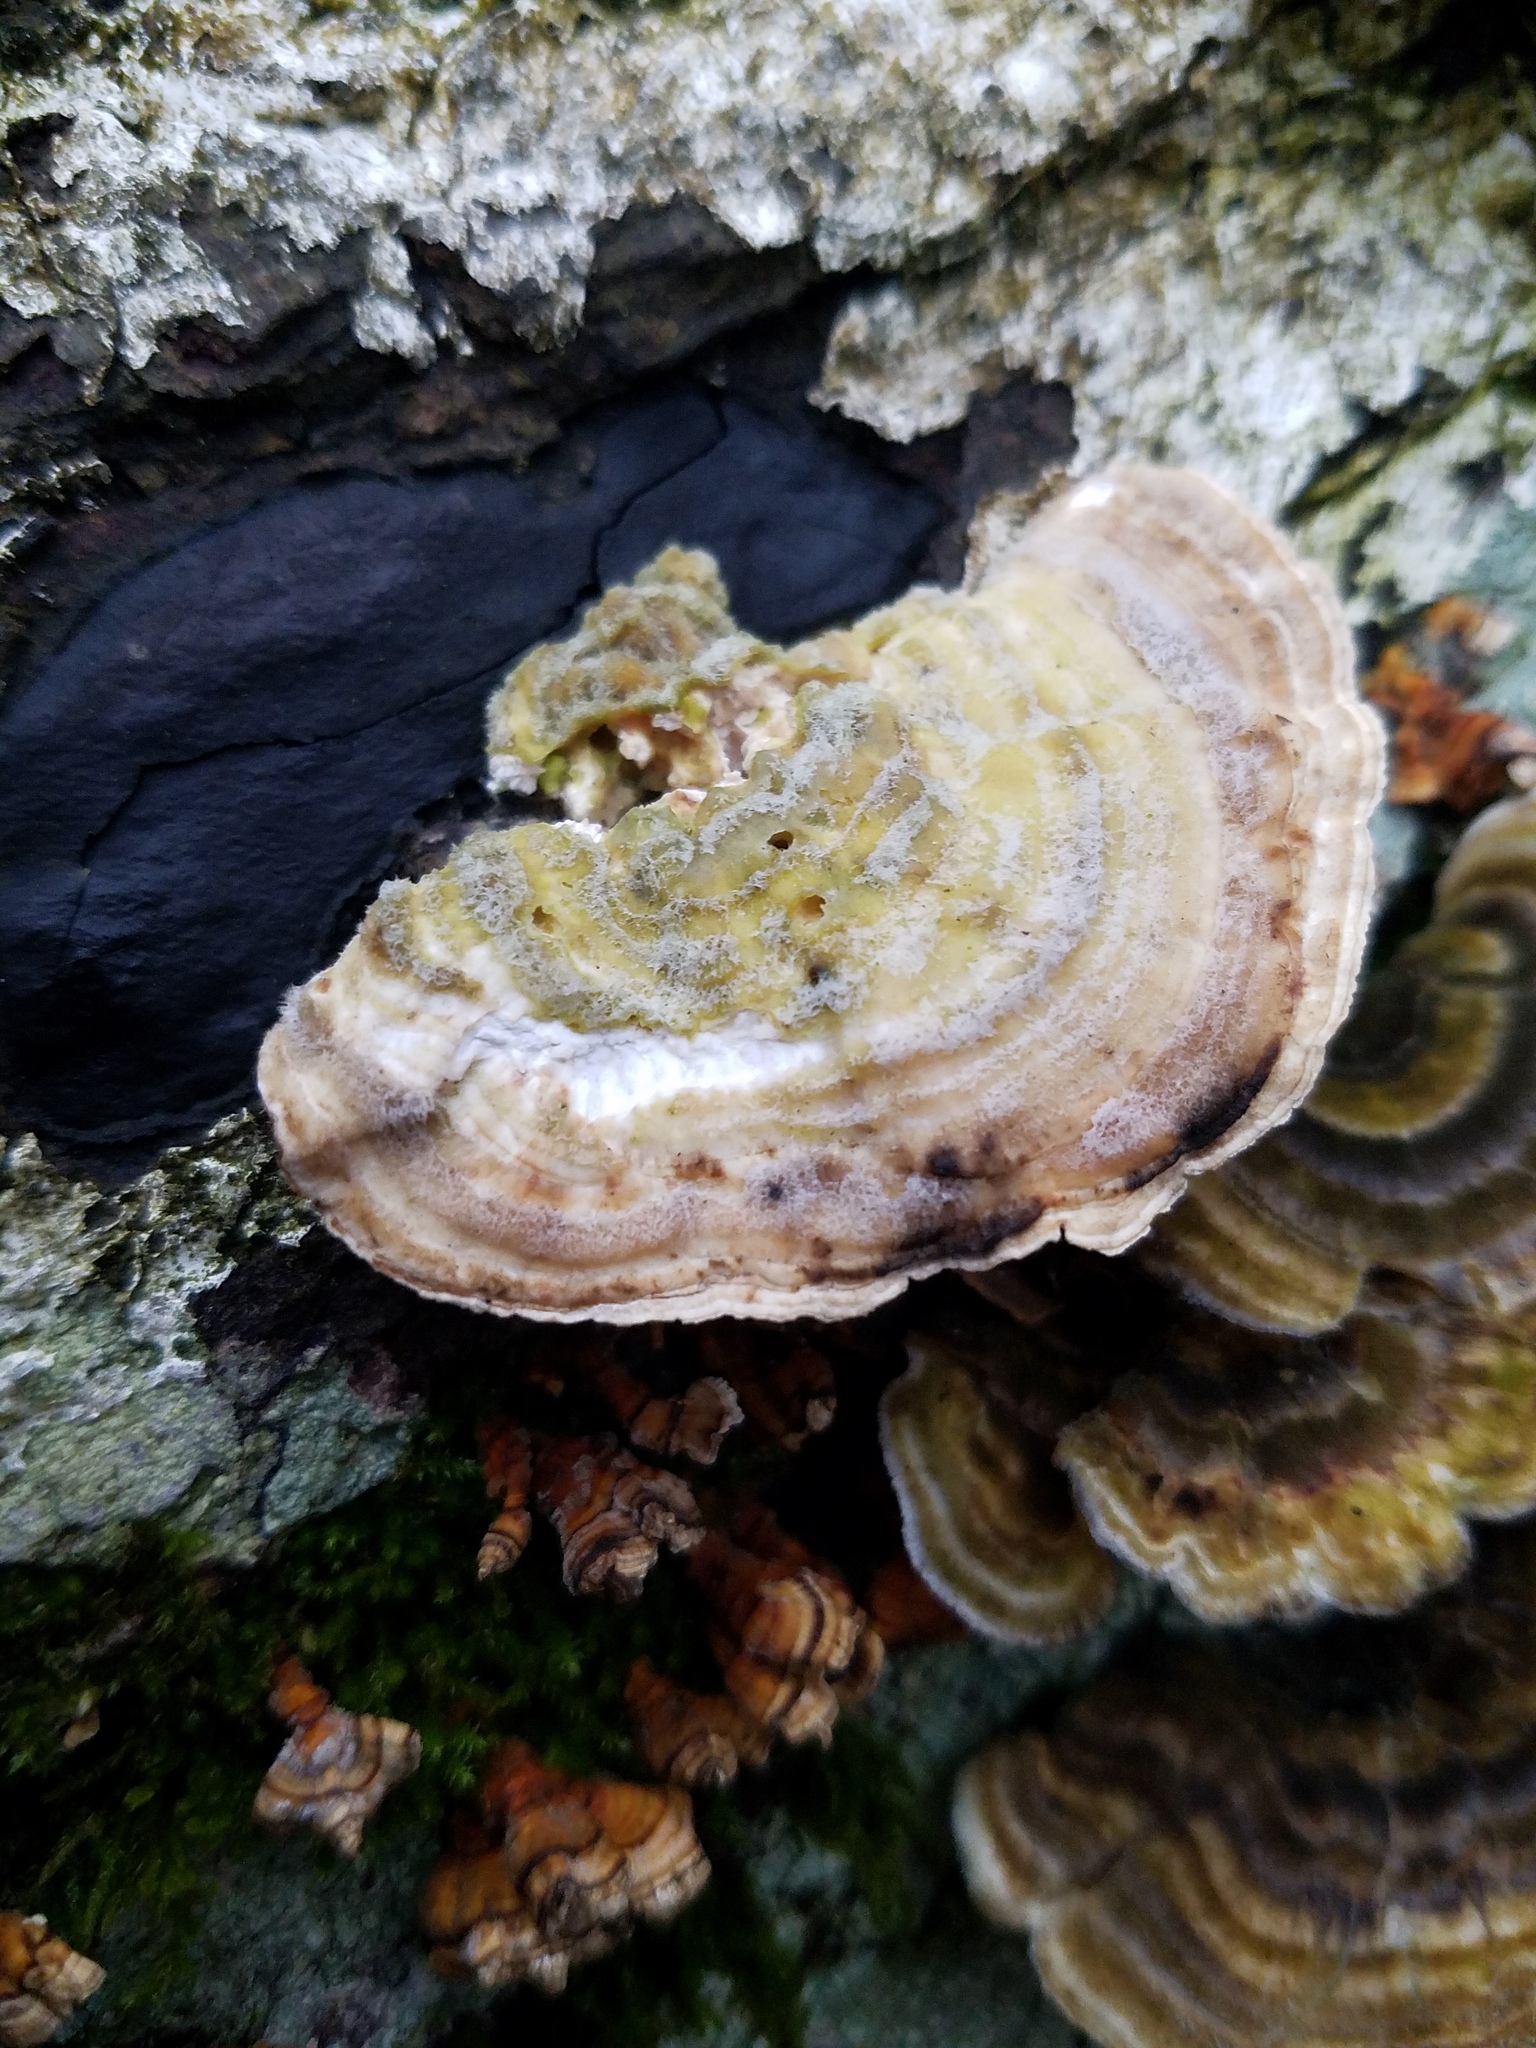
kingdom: Fungi
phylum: Basidiomycota
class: Agaricomycetes
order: Polyporales
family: Polyporaceae
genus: Lenzites
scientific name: Lenzites betulinus
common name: Birch mazegill
